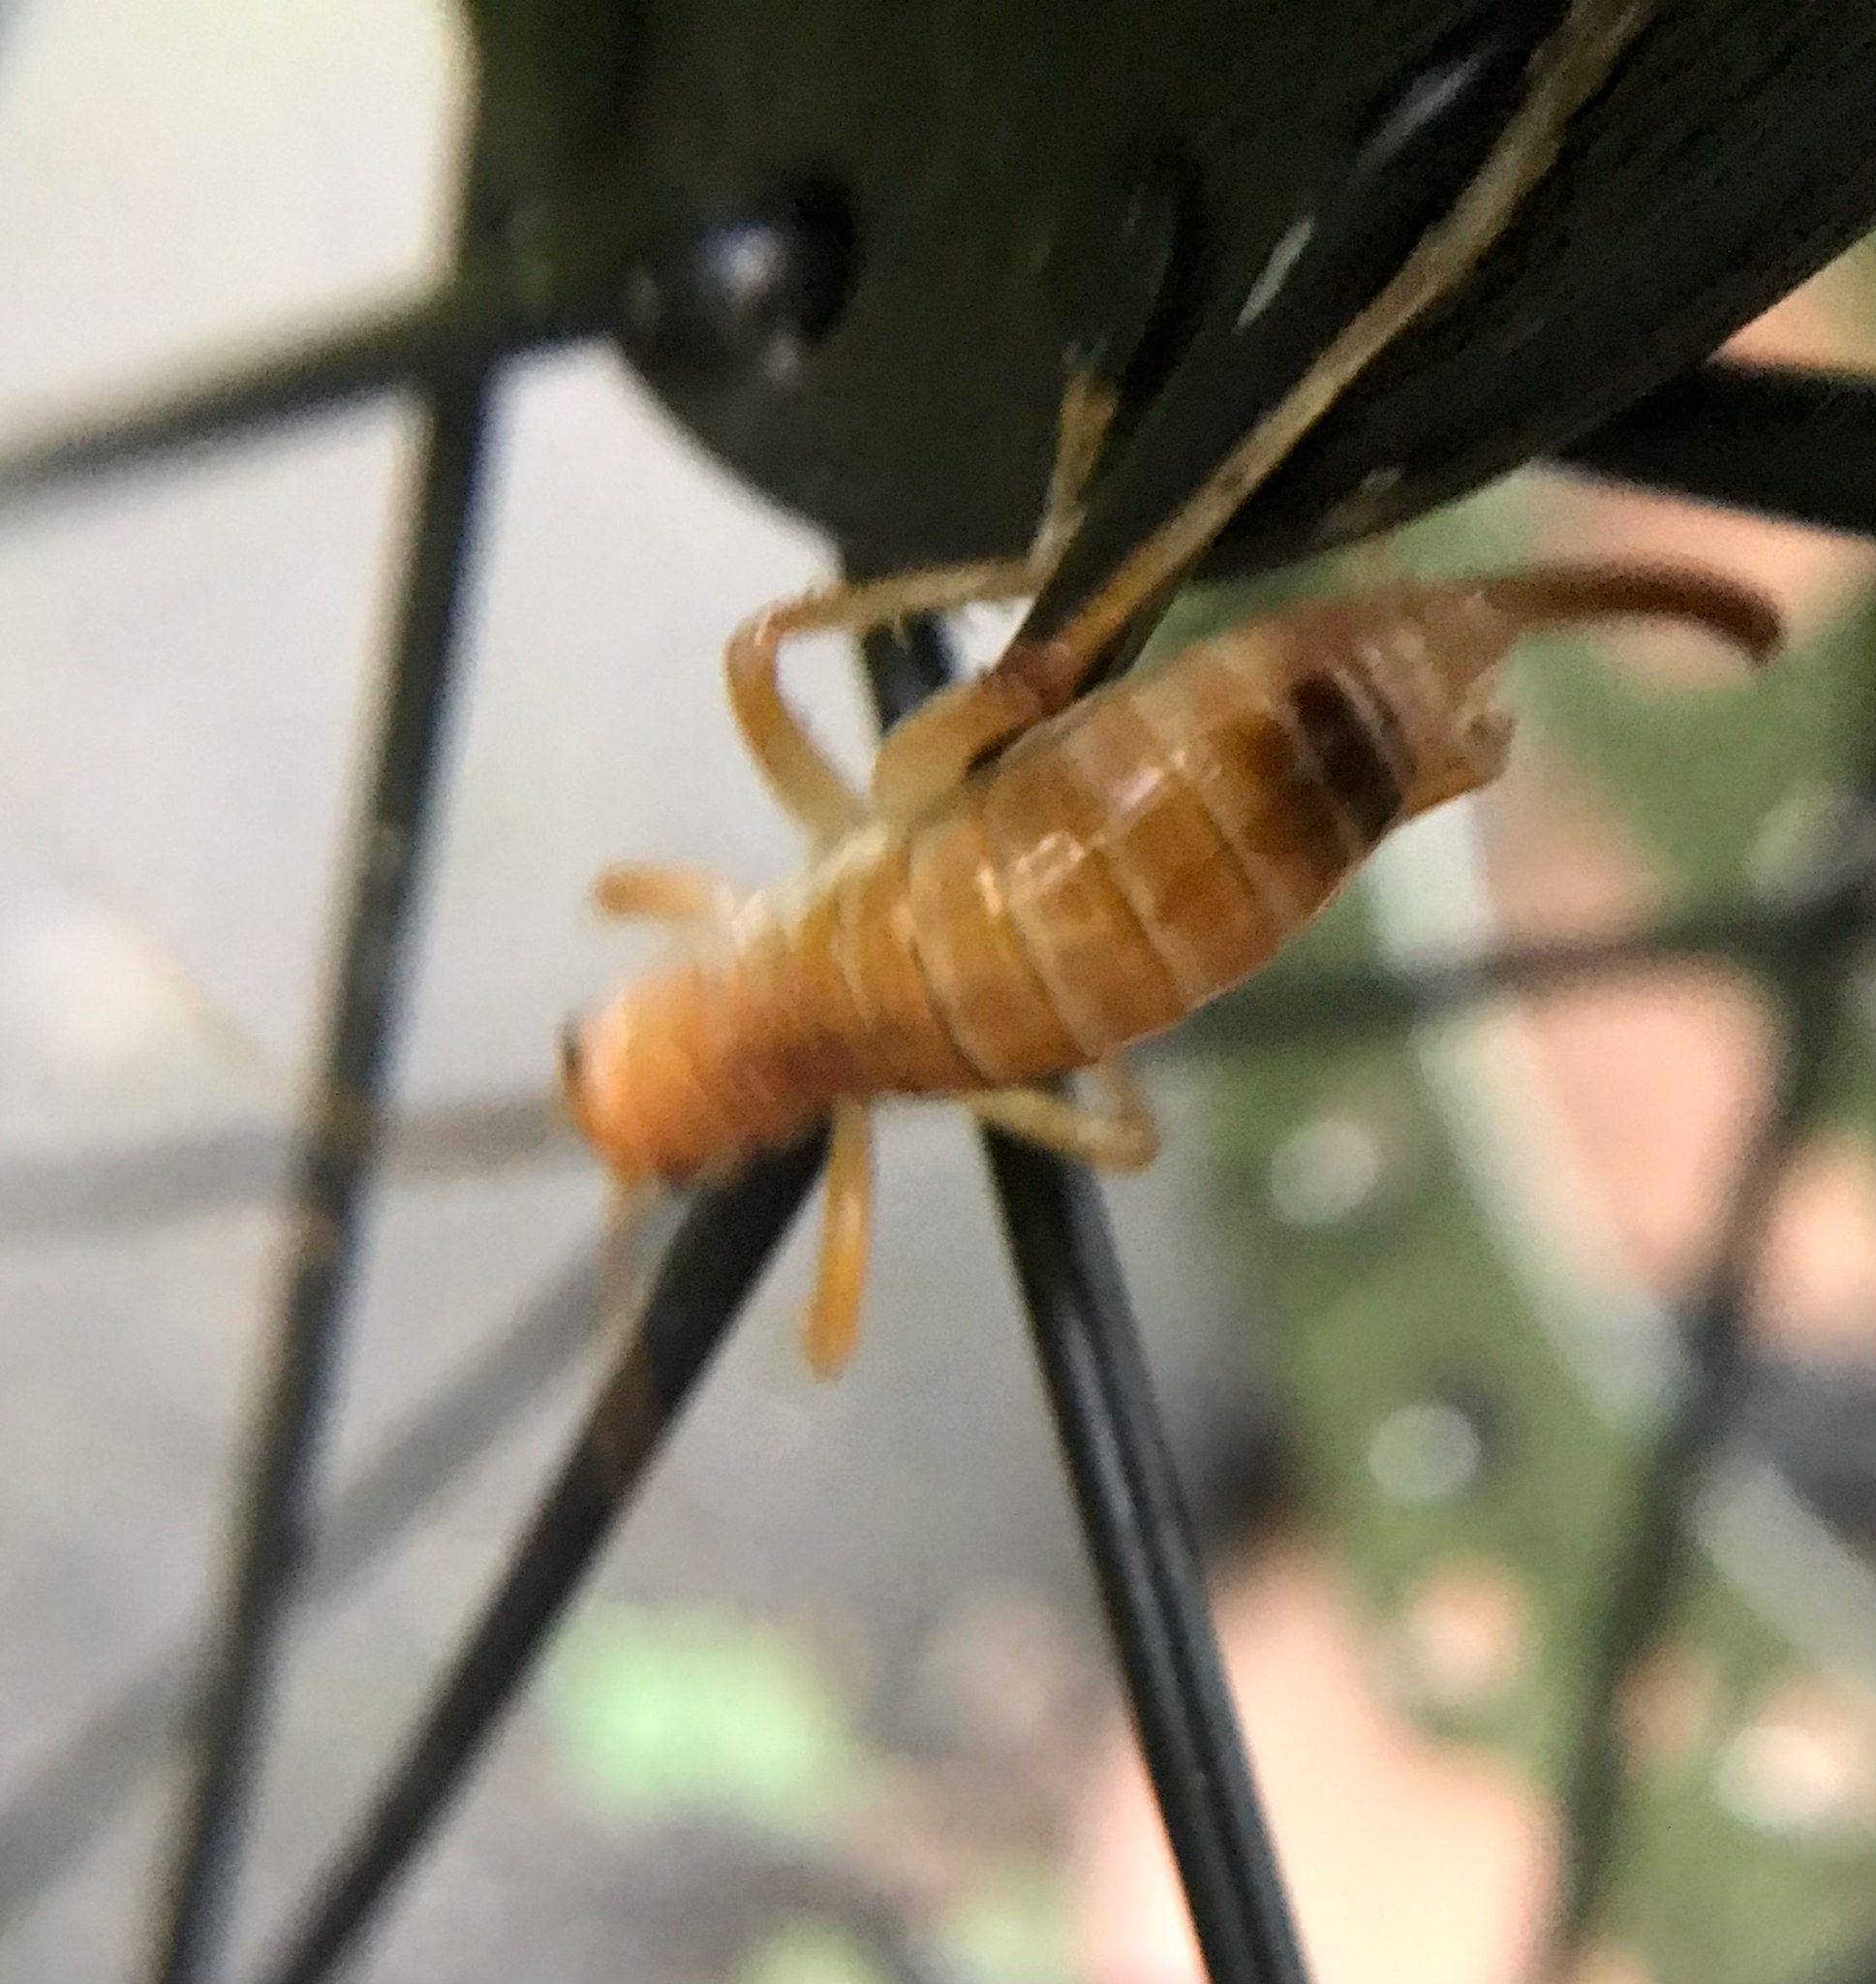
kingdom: Animalia
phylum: Arthropoda
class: Insecta
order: Orthoptera
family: Gryllacrididae
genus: Camptonotus
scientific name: Camptonotus carolinensis
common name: Carolina leaf-roller
